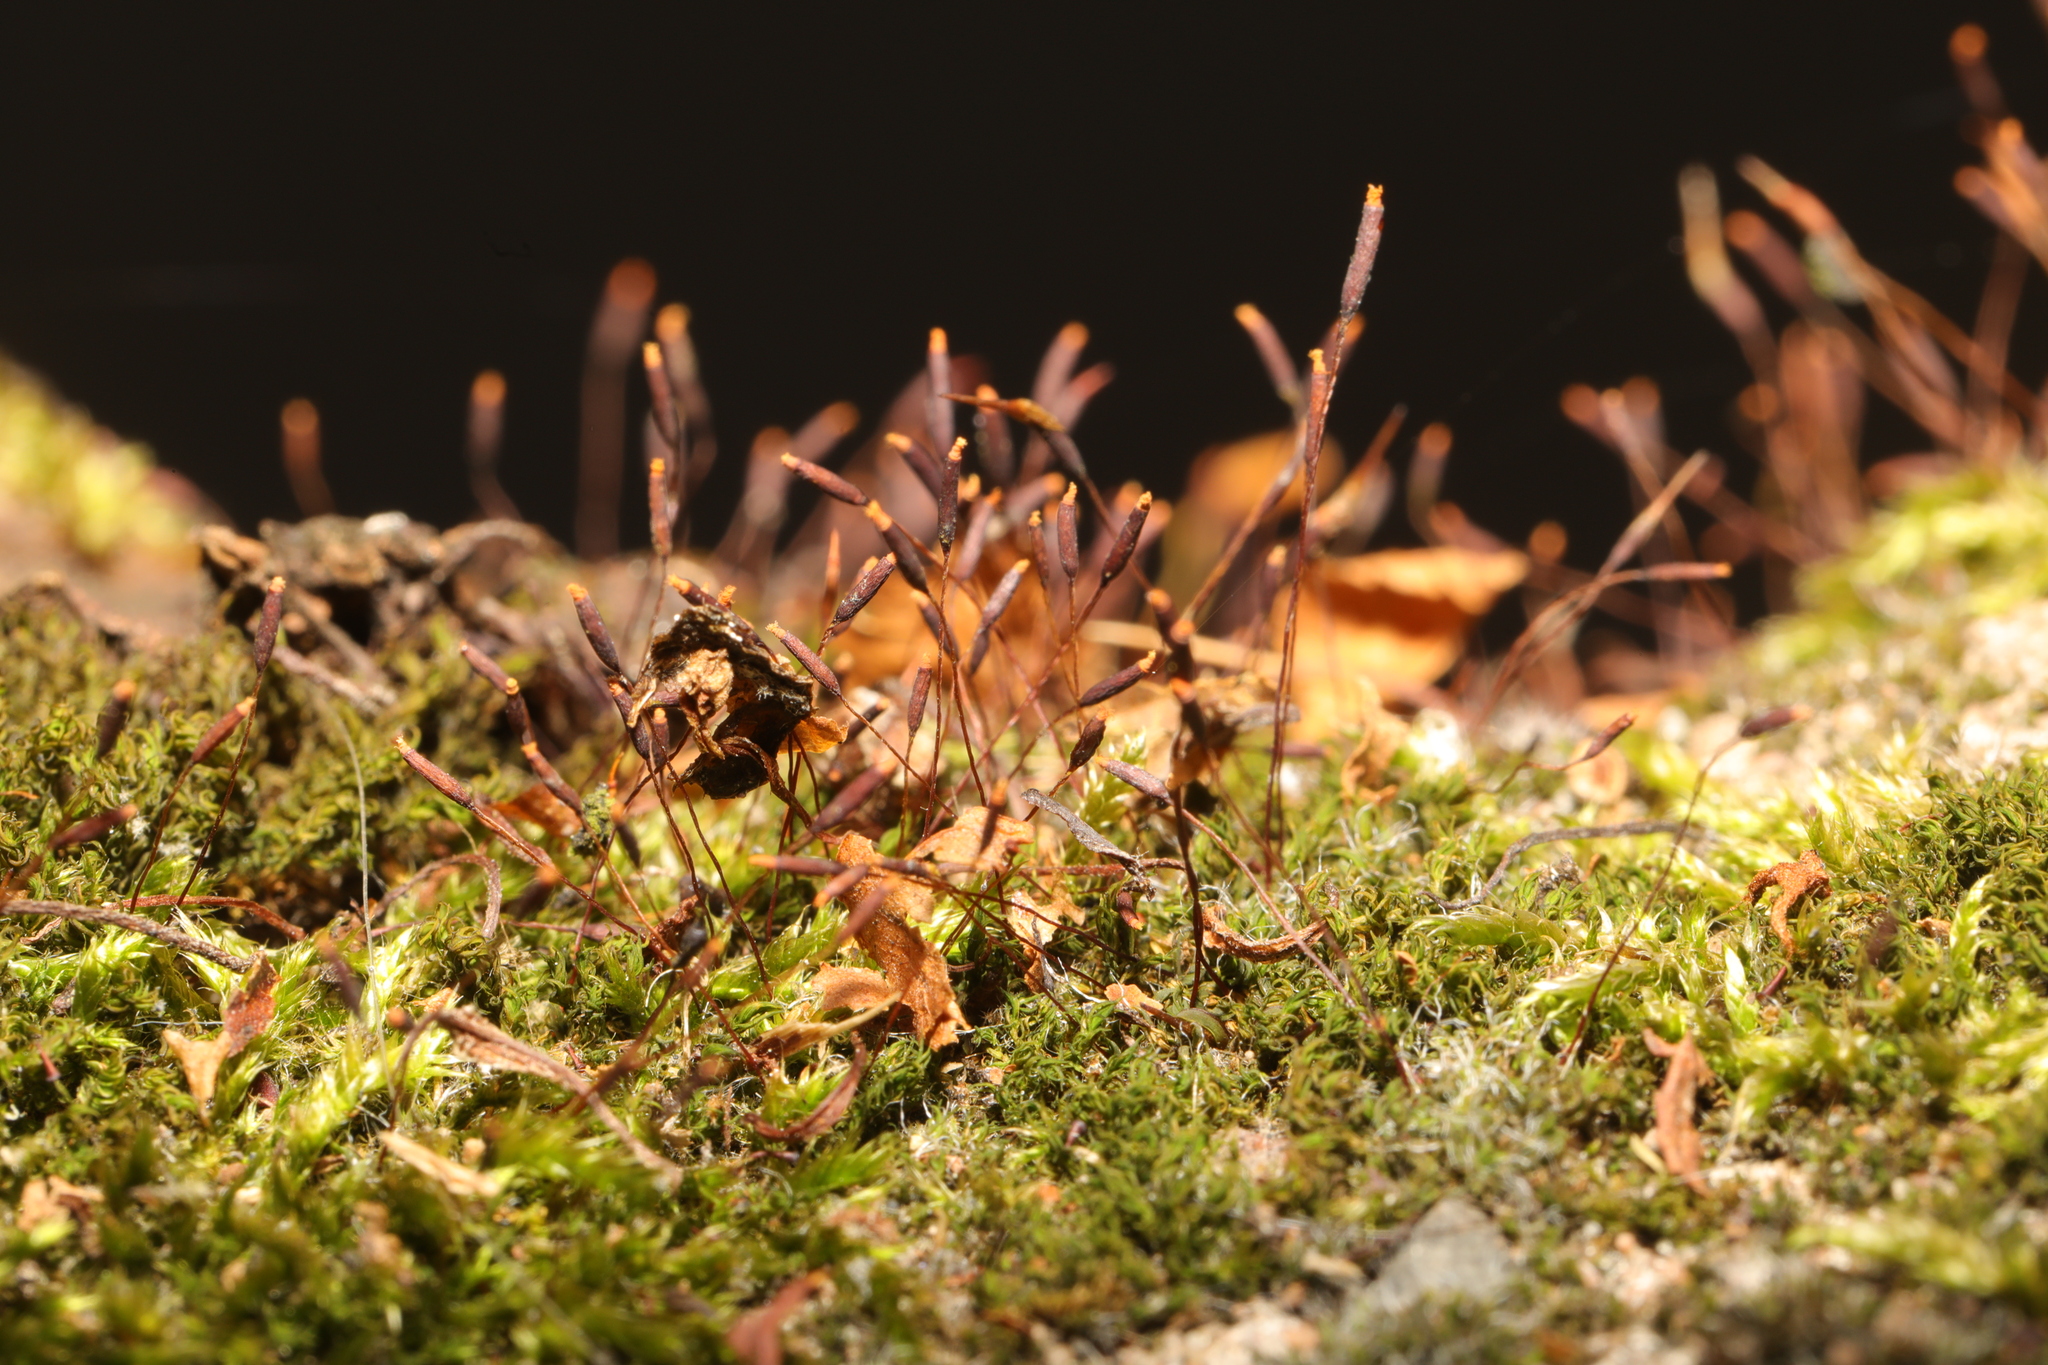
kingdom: Plantae
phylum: Bryophyta
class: Bryopsida
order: Pottiales
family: Pottiaceae
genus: Tortula
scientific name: Tortula muralis
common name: Wall screw-moss
